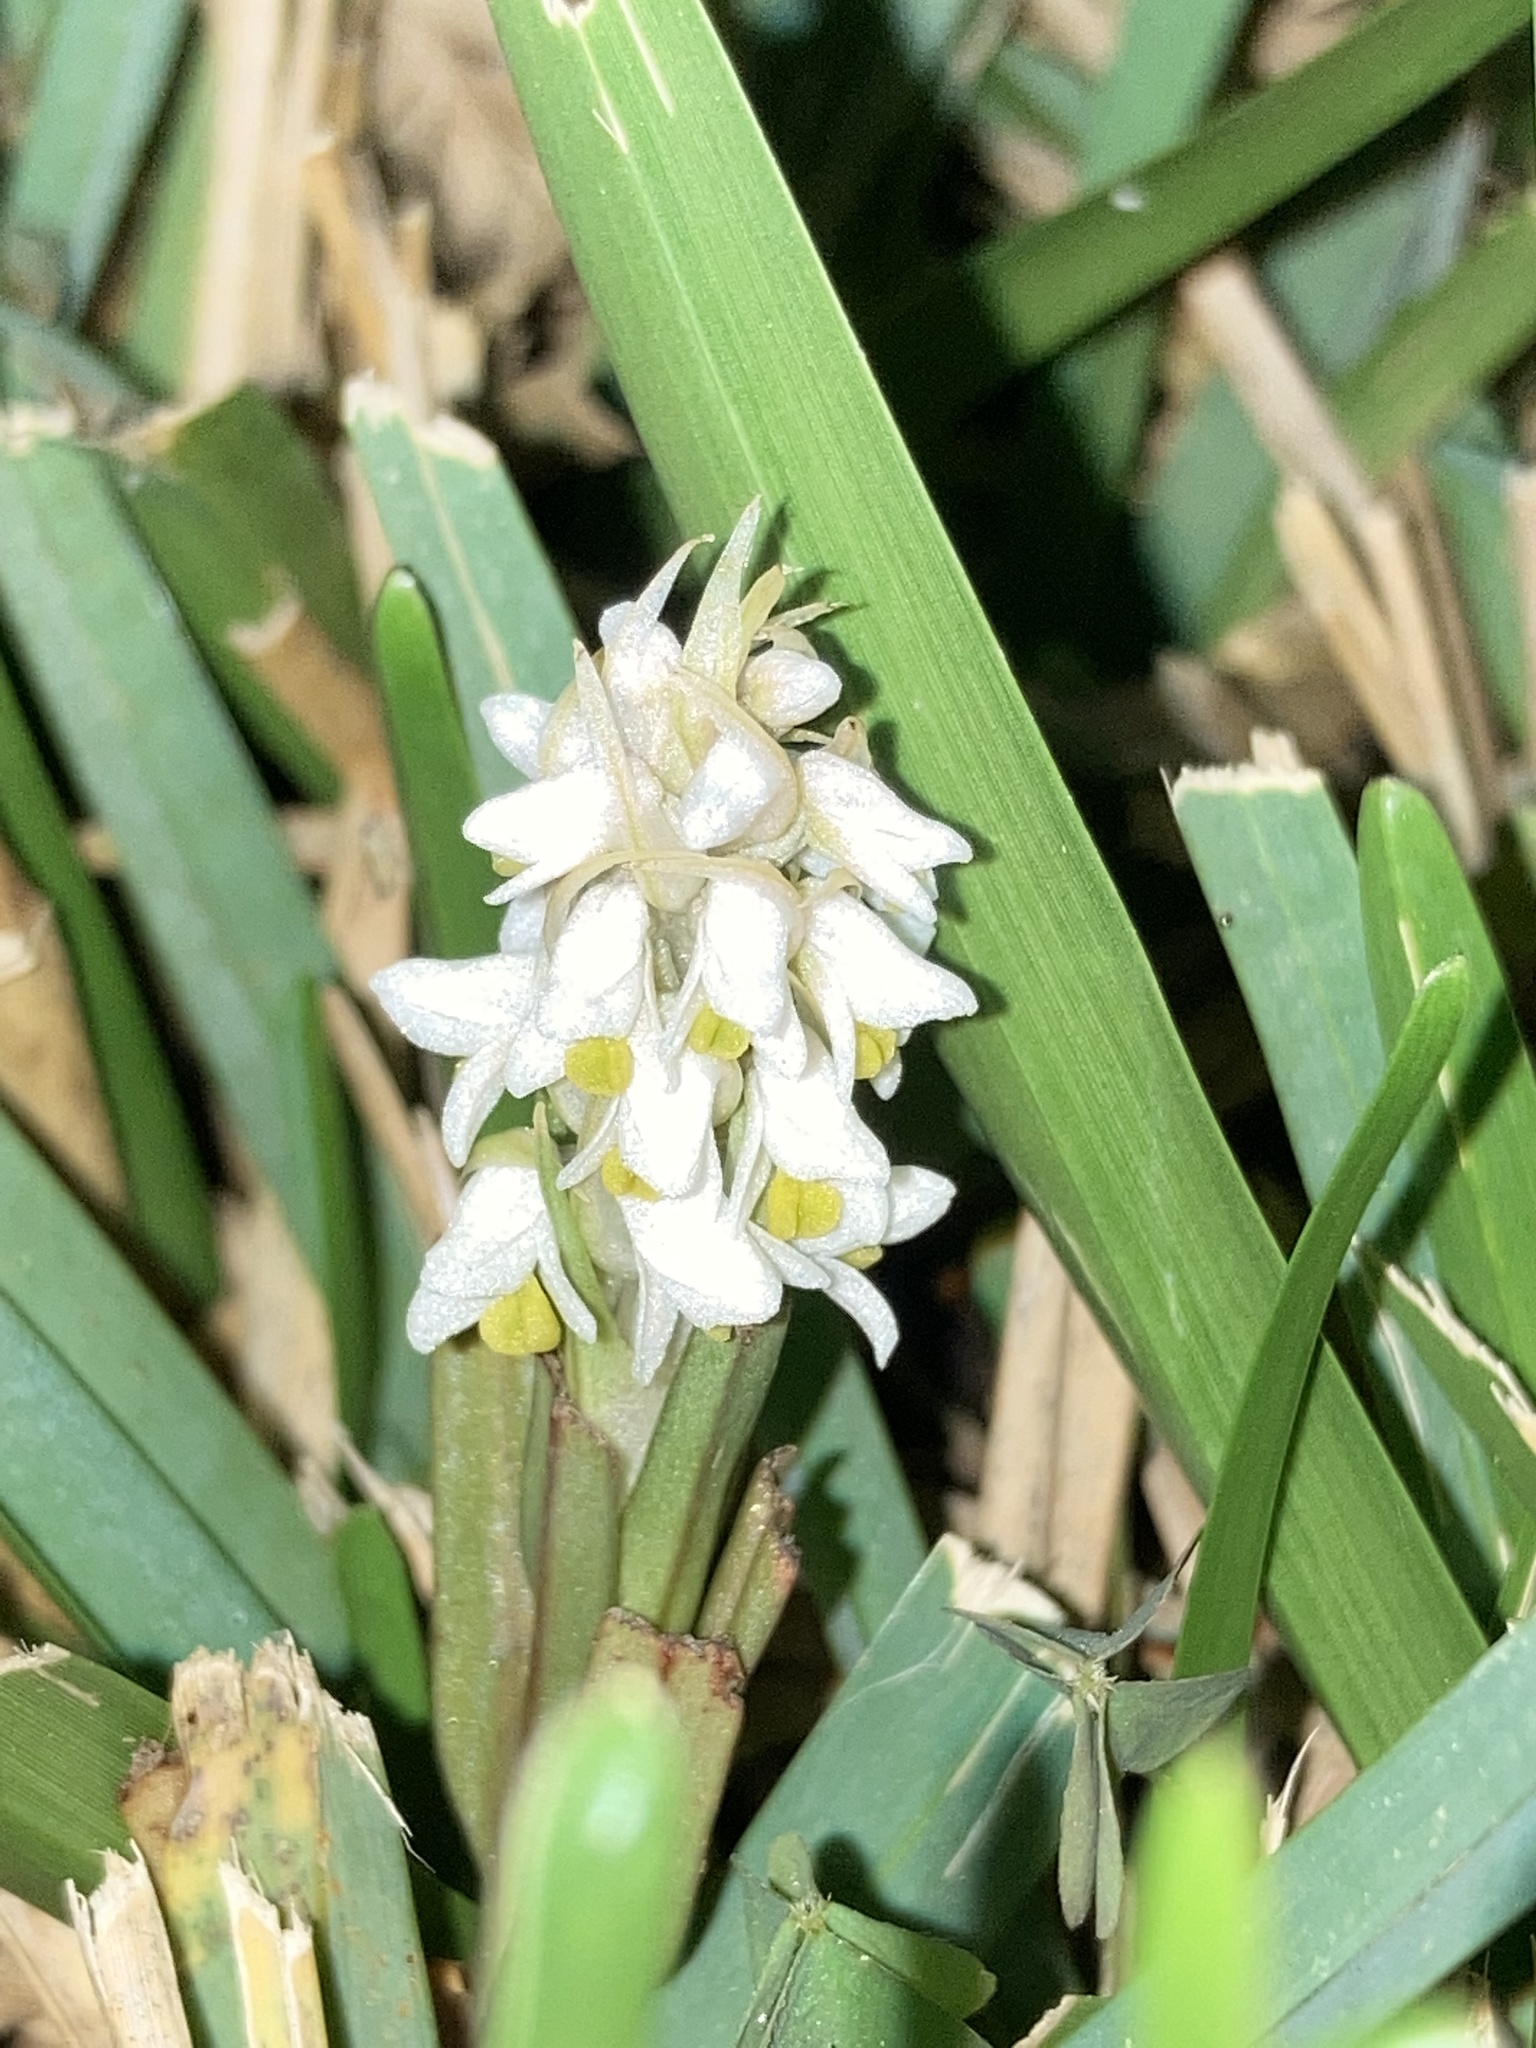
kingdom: Plantae
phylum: Tracheophyta
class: Liliopsida
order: Asparagales
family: Orchidaceae
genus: Zeuxine
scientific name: Zeuxine strateumatica
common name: Soldier's orchid
